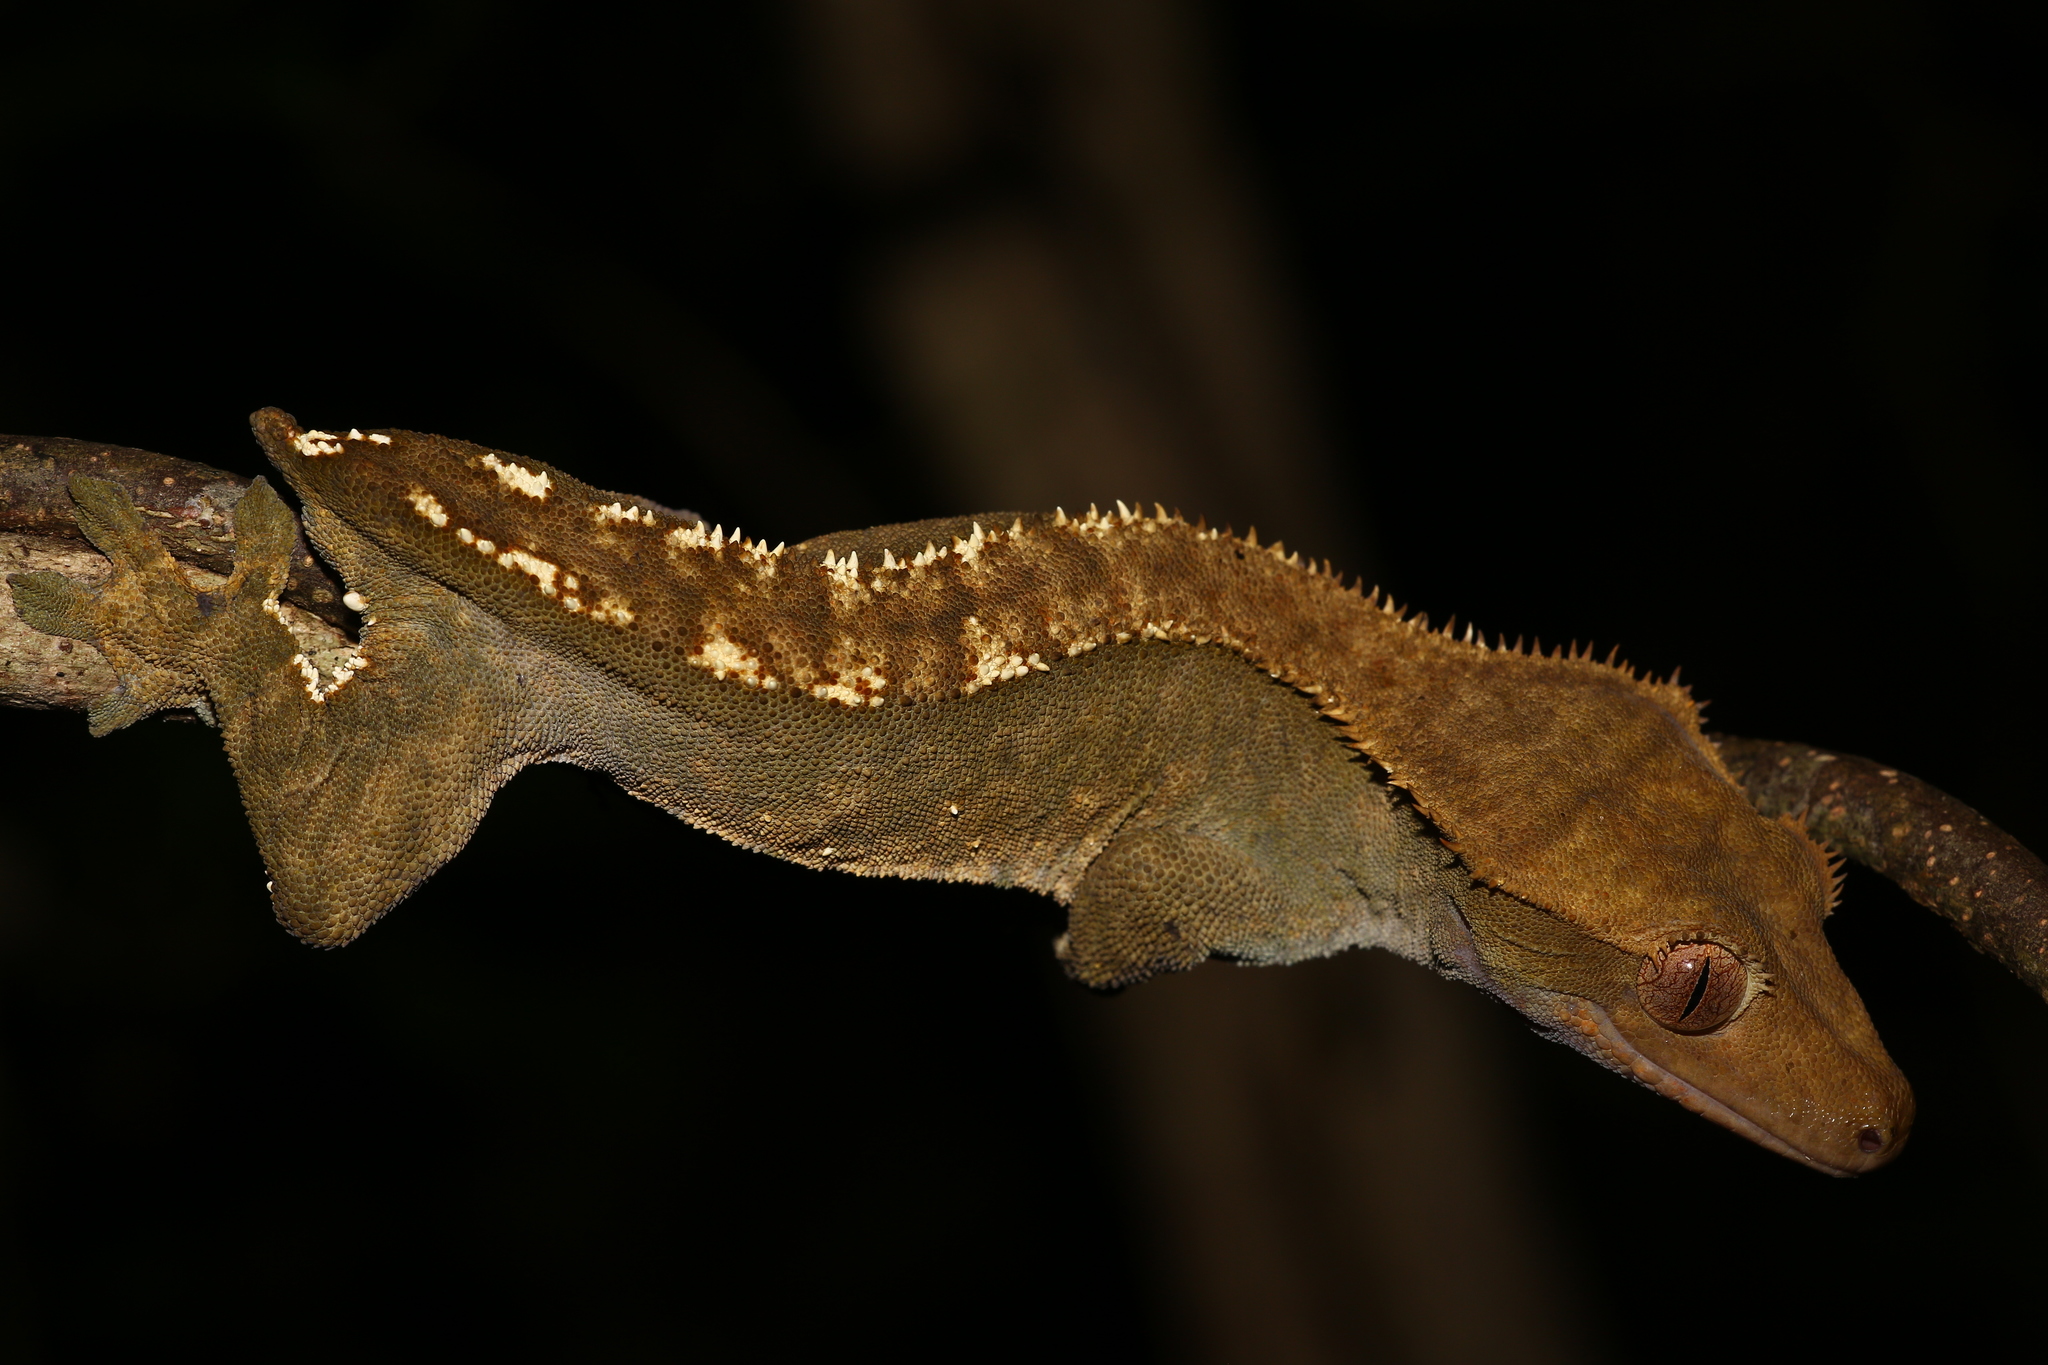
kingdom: Animalia
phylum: Chordata
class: Squamata
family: Diplodactylidae
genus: Correlophus
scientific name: Correlophus ciliatus
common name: Crested gecko
